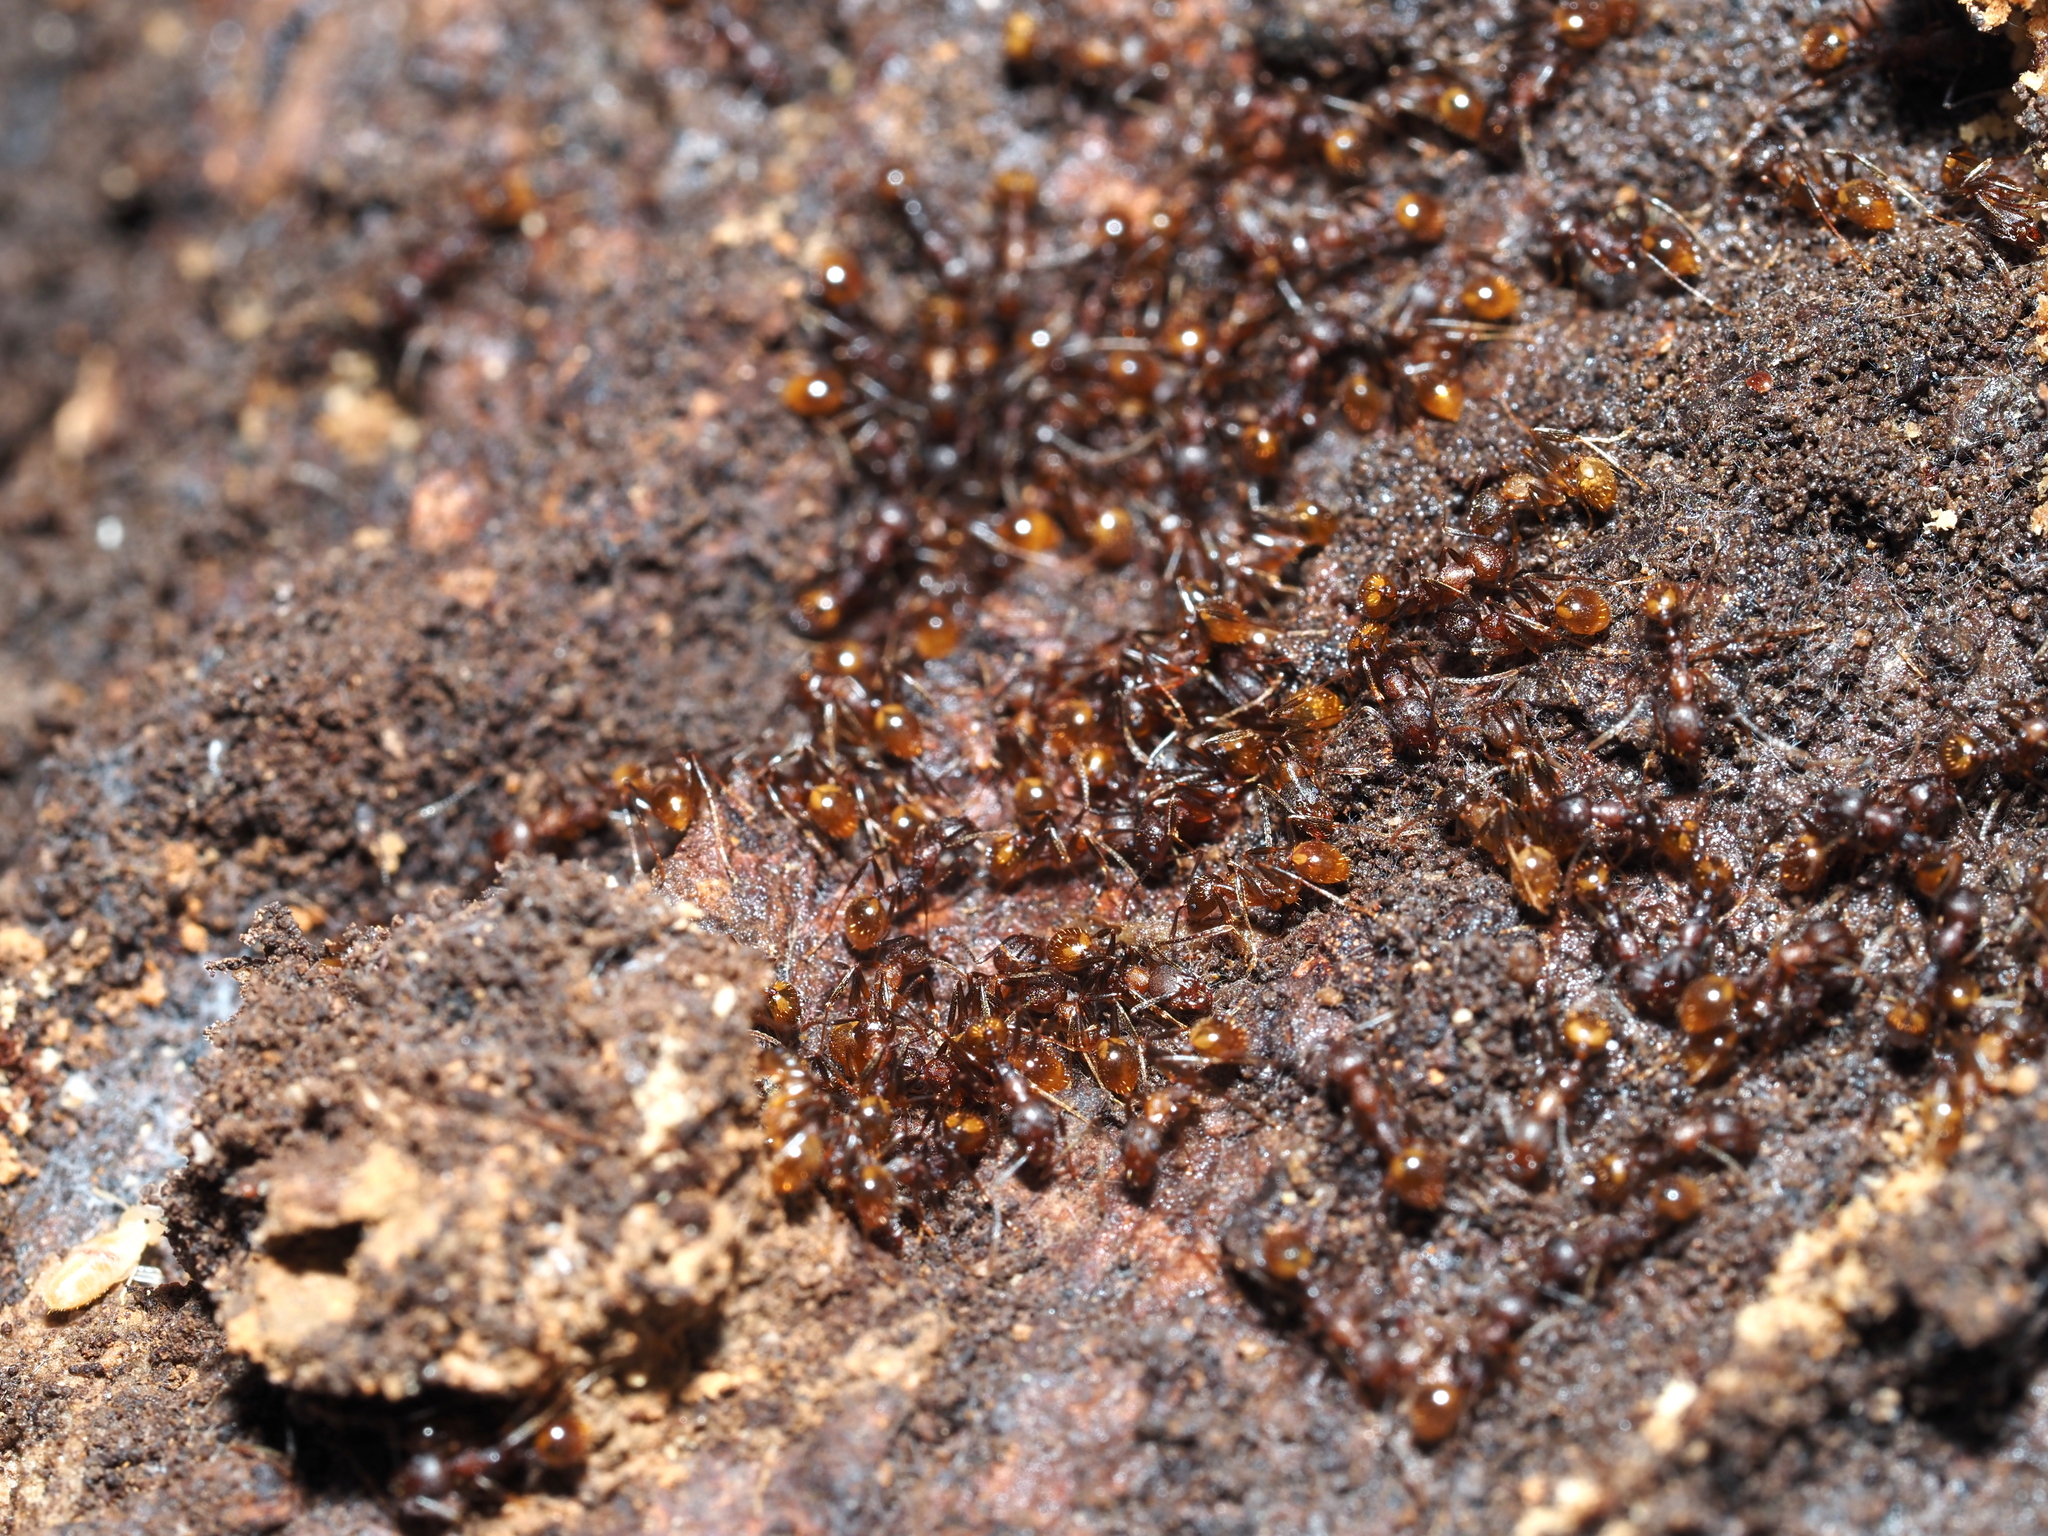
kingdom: Animalia
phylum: Arthropoda
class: Insecta
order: Hymenoptera
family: Formicidae
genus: Aphaenogaster
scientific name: Aphaenogaster fulva
